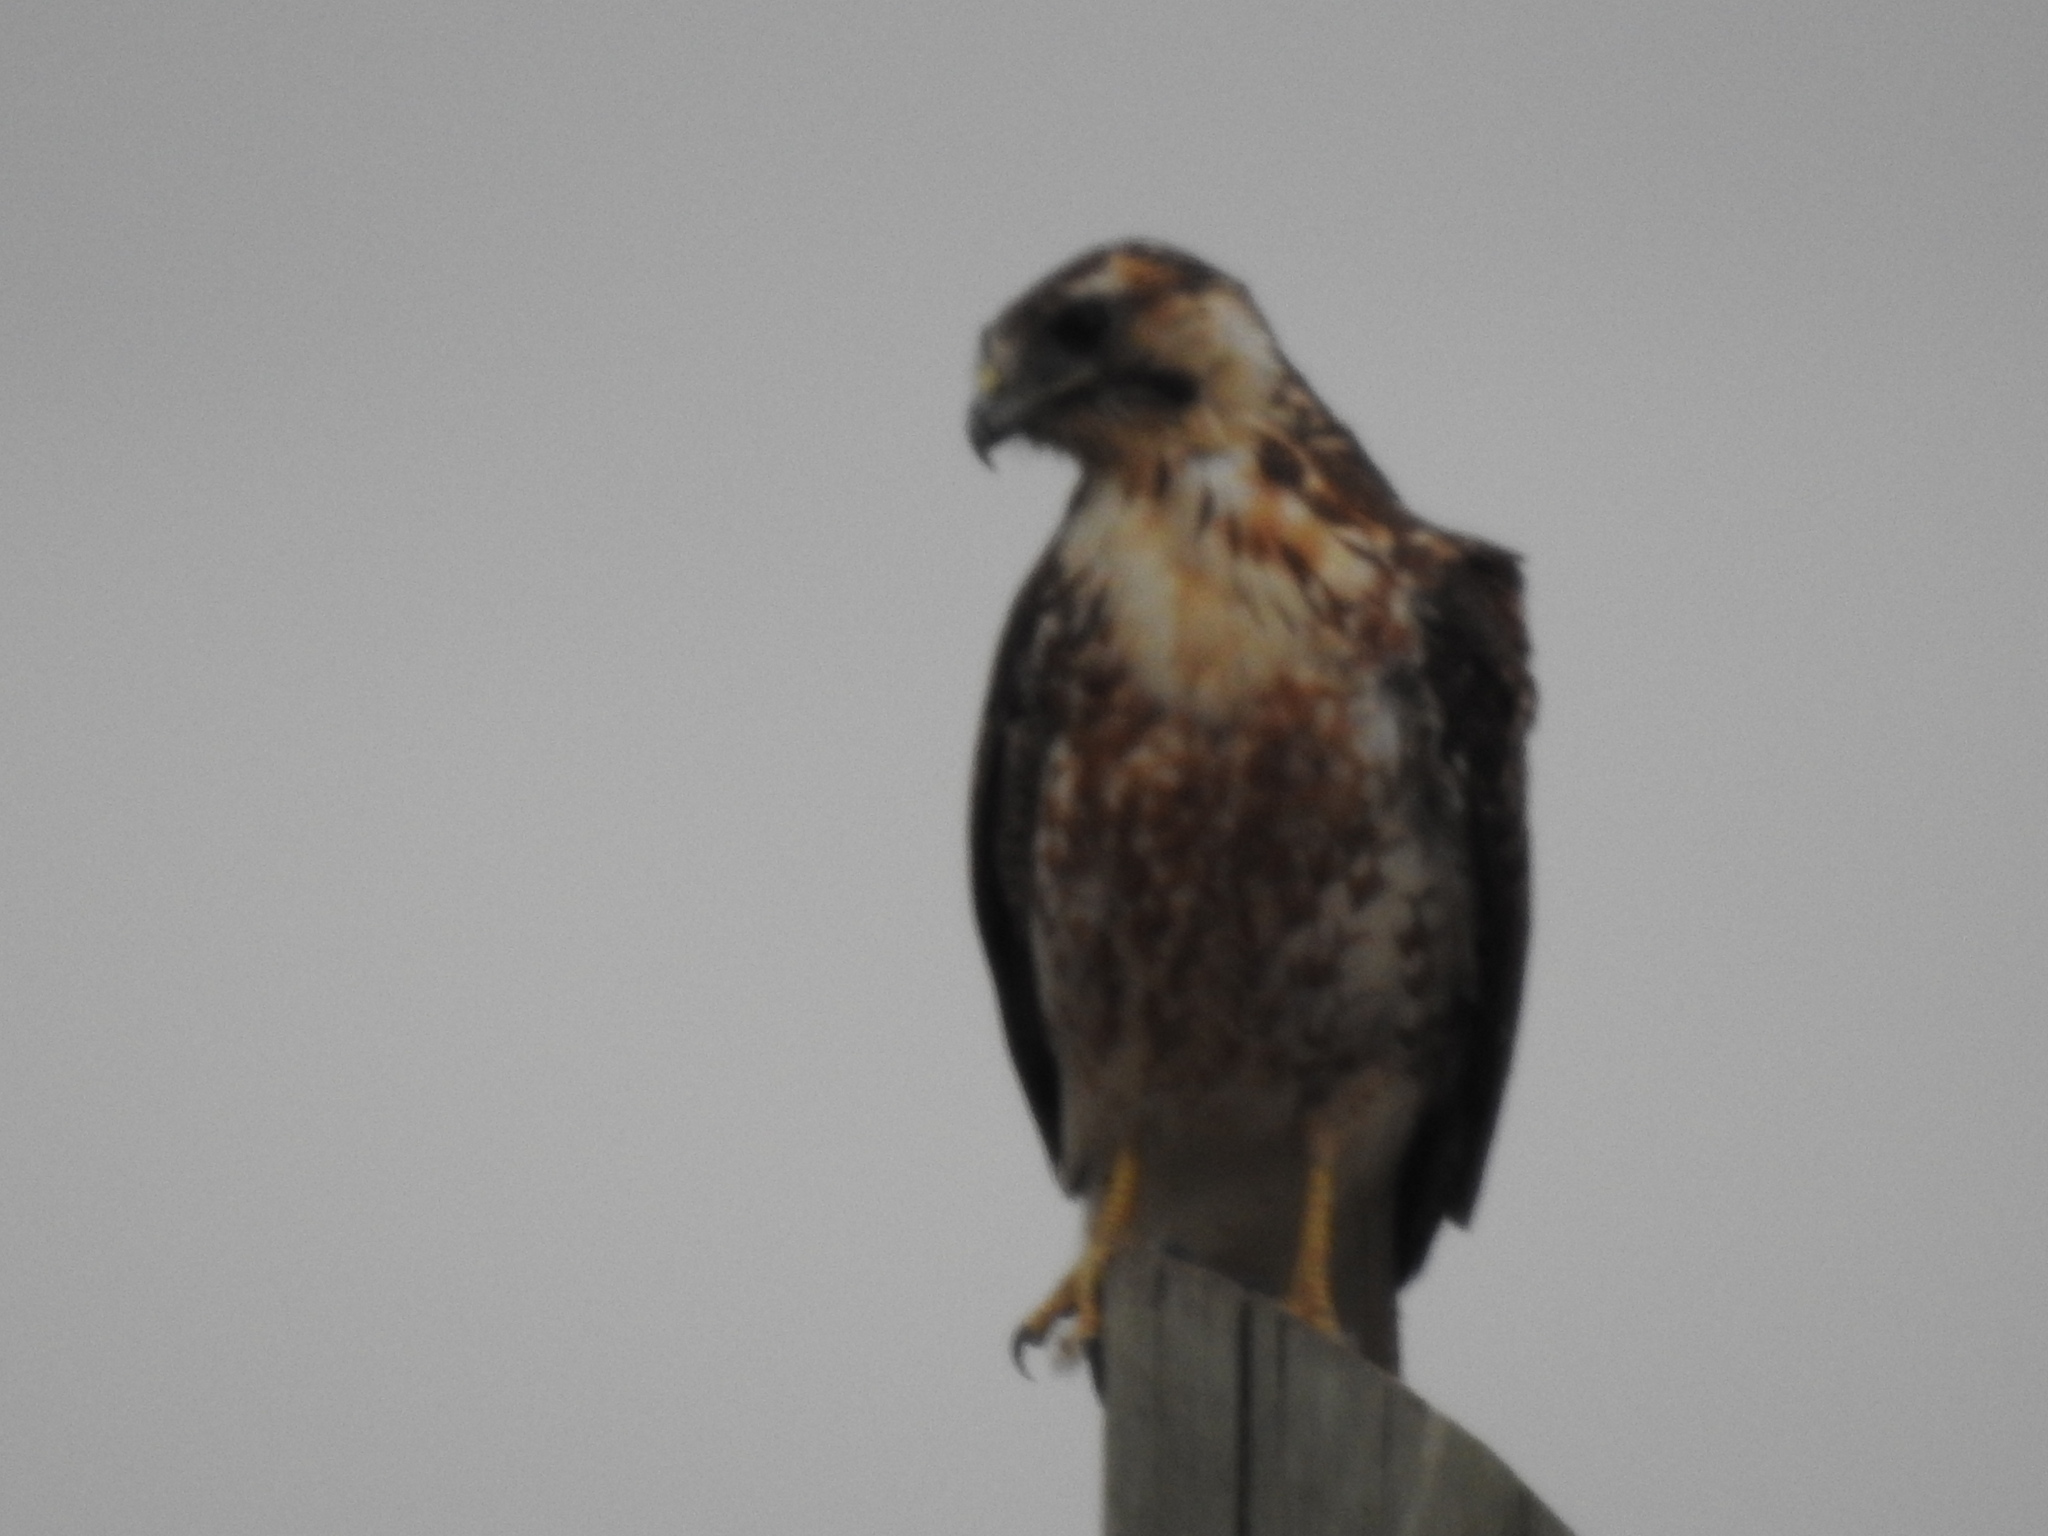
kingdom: Animalia
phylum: Chordata
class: Aves
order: Accipitriformes
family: Accipitridae
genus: Buteo
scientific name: Buteo polyosoma
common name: Variable hawk
